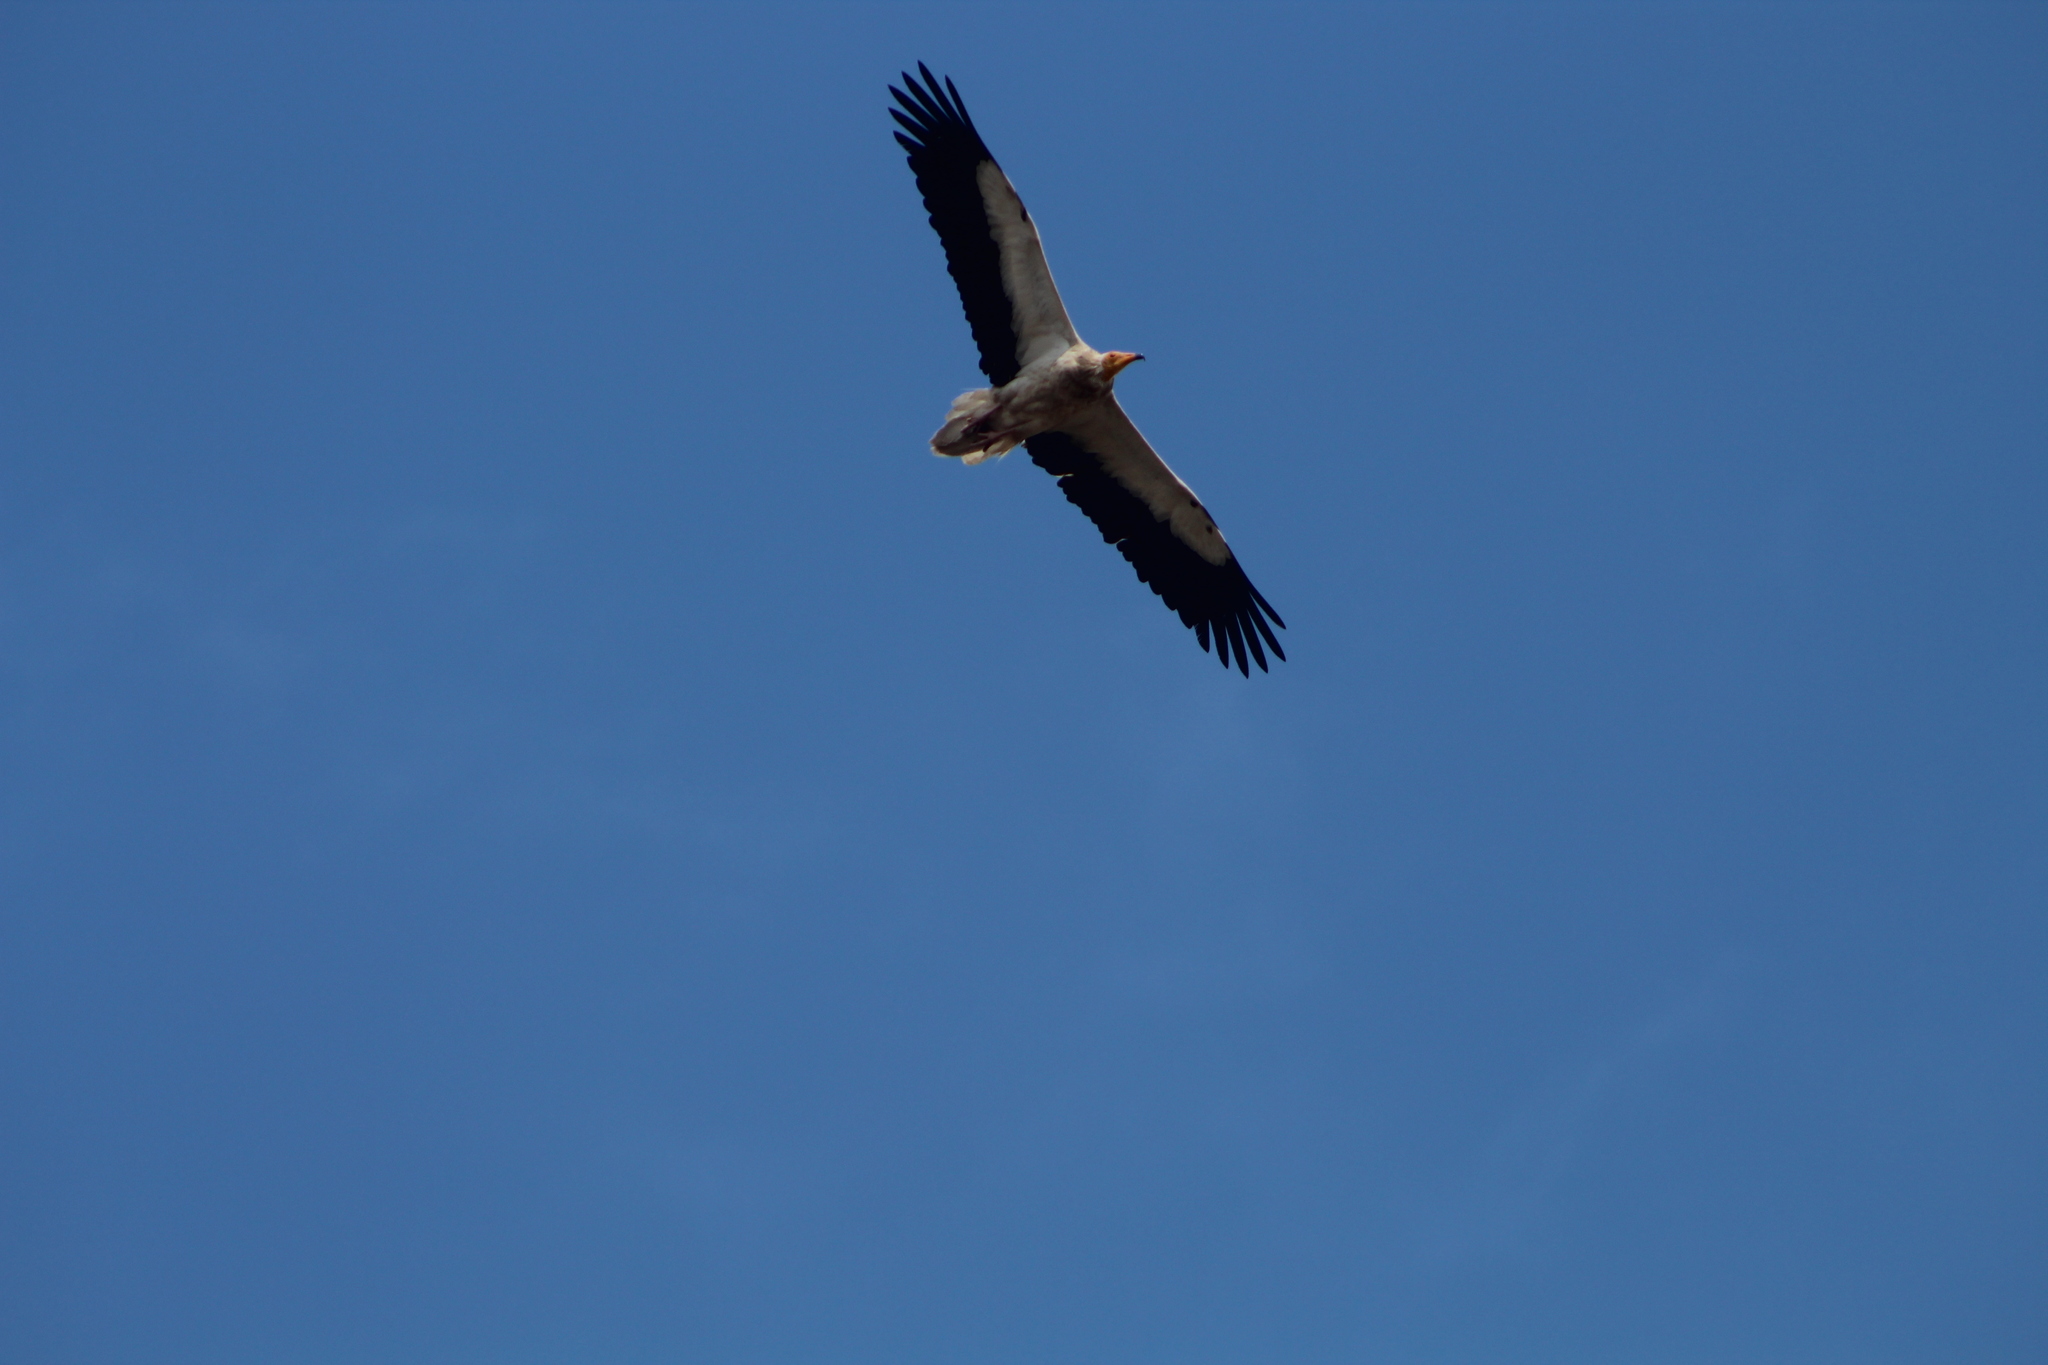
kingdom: Animalia
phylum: Chordata
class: Aves
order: Accipitriformes
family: Accipitridae
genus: Neophron
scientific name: Neophron percnopterus
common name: Egyptian vulture
